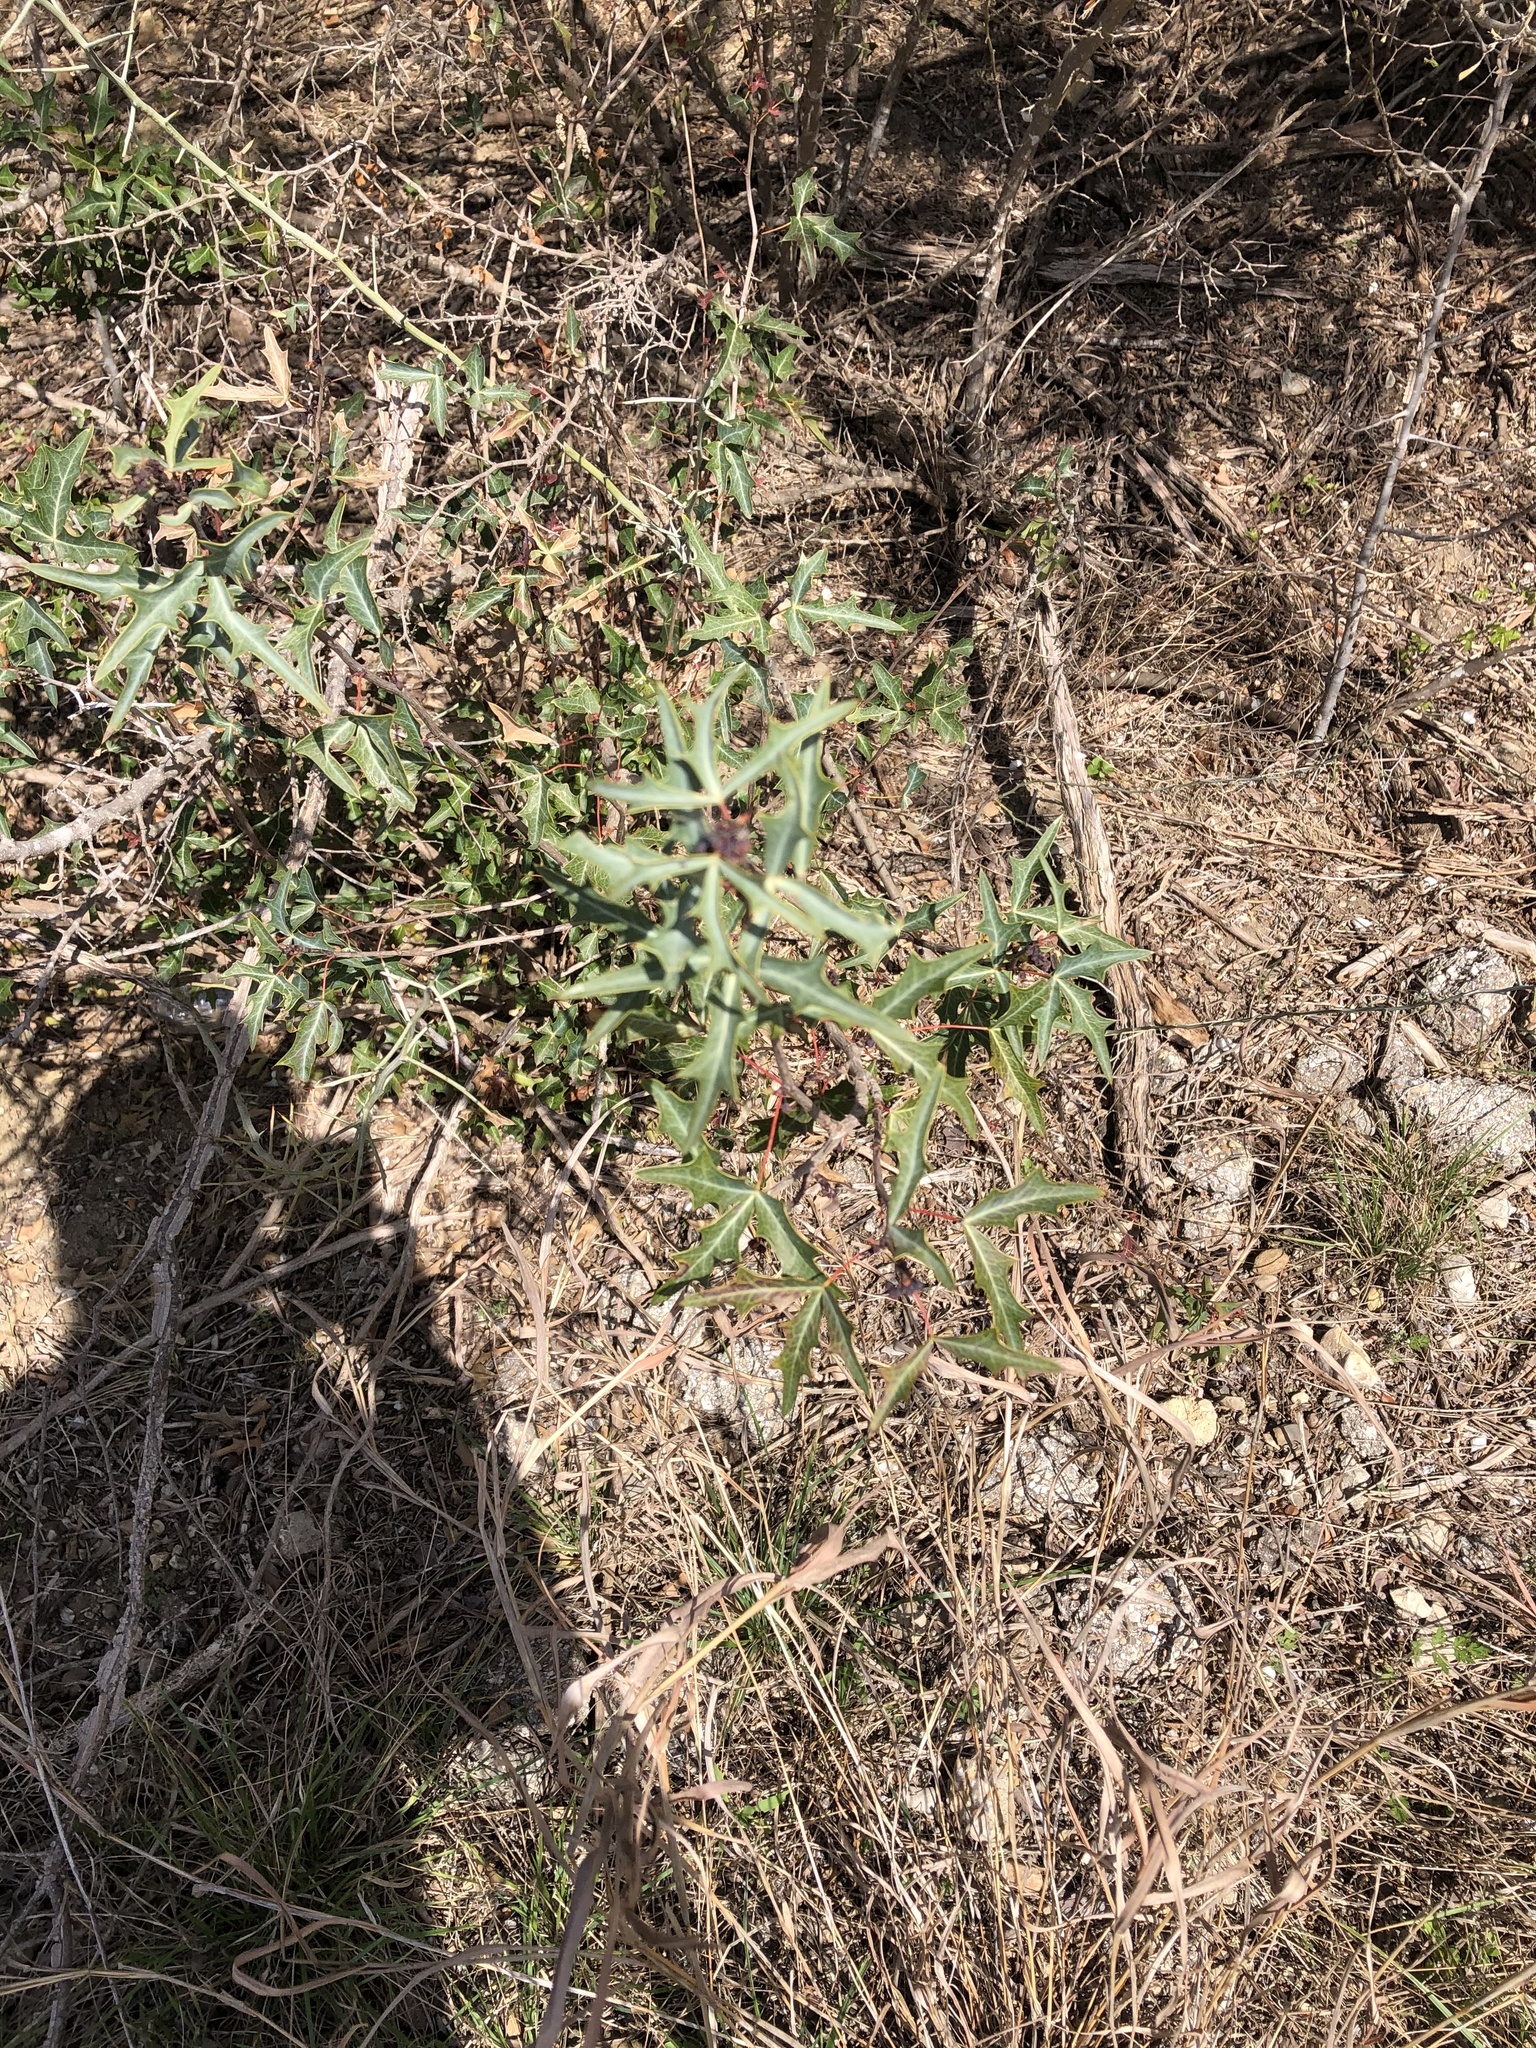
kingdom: Plantae
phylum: Tracheophyta
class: Magnoliopsida
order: Ranunculales
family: Berberidaceae
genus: Alloberberis
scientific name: Alloberberis trifoliolata
